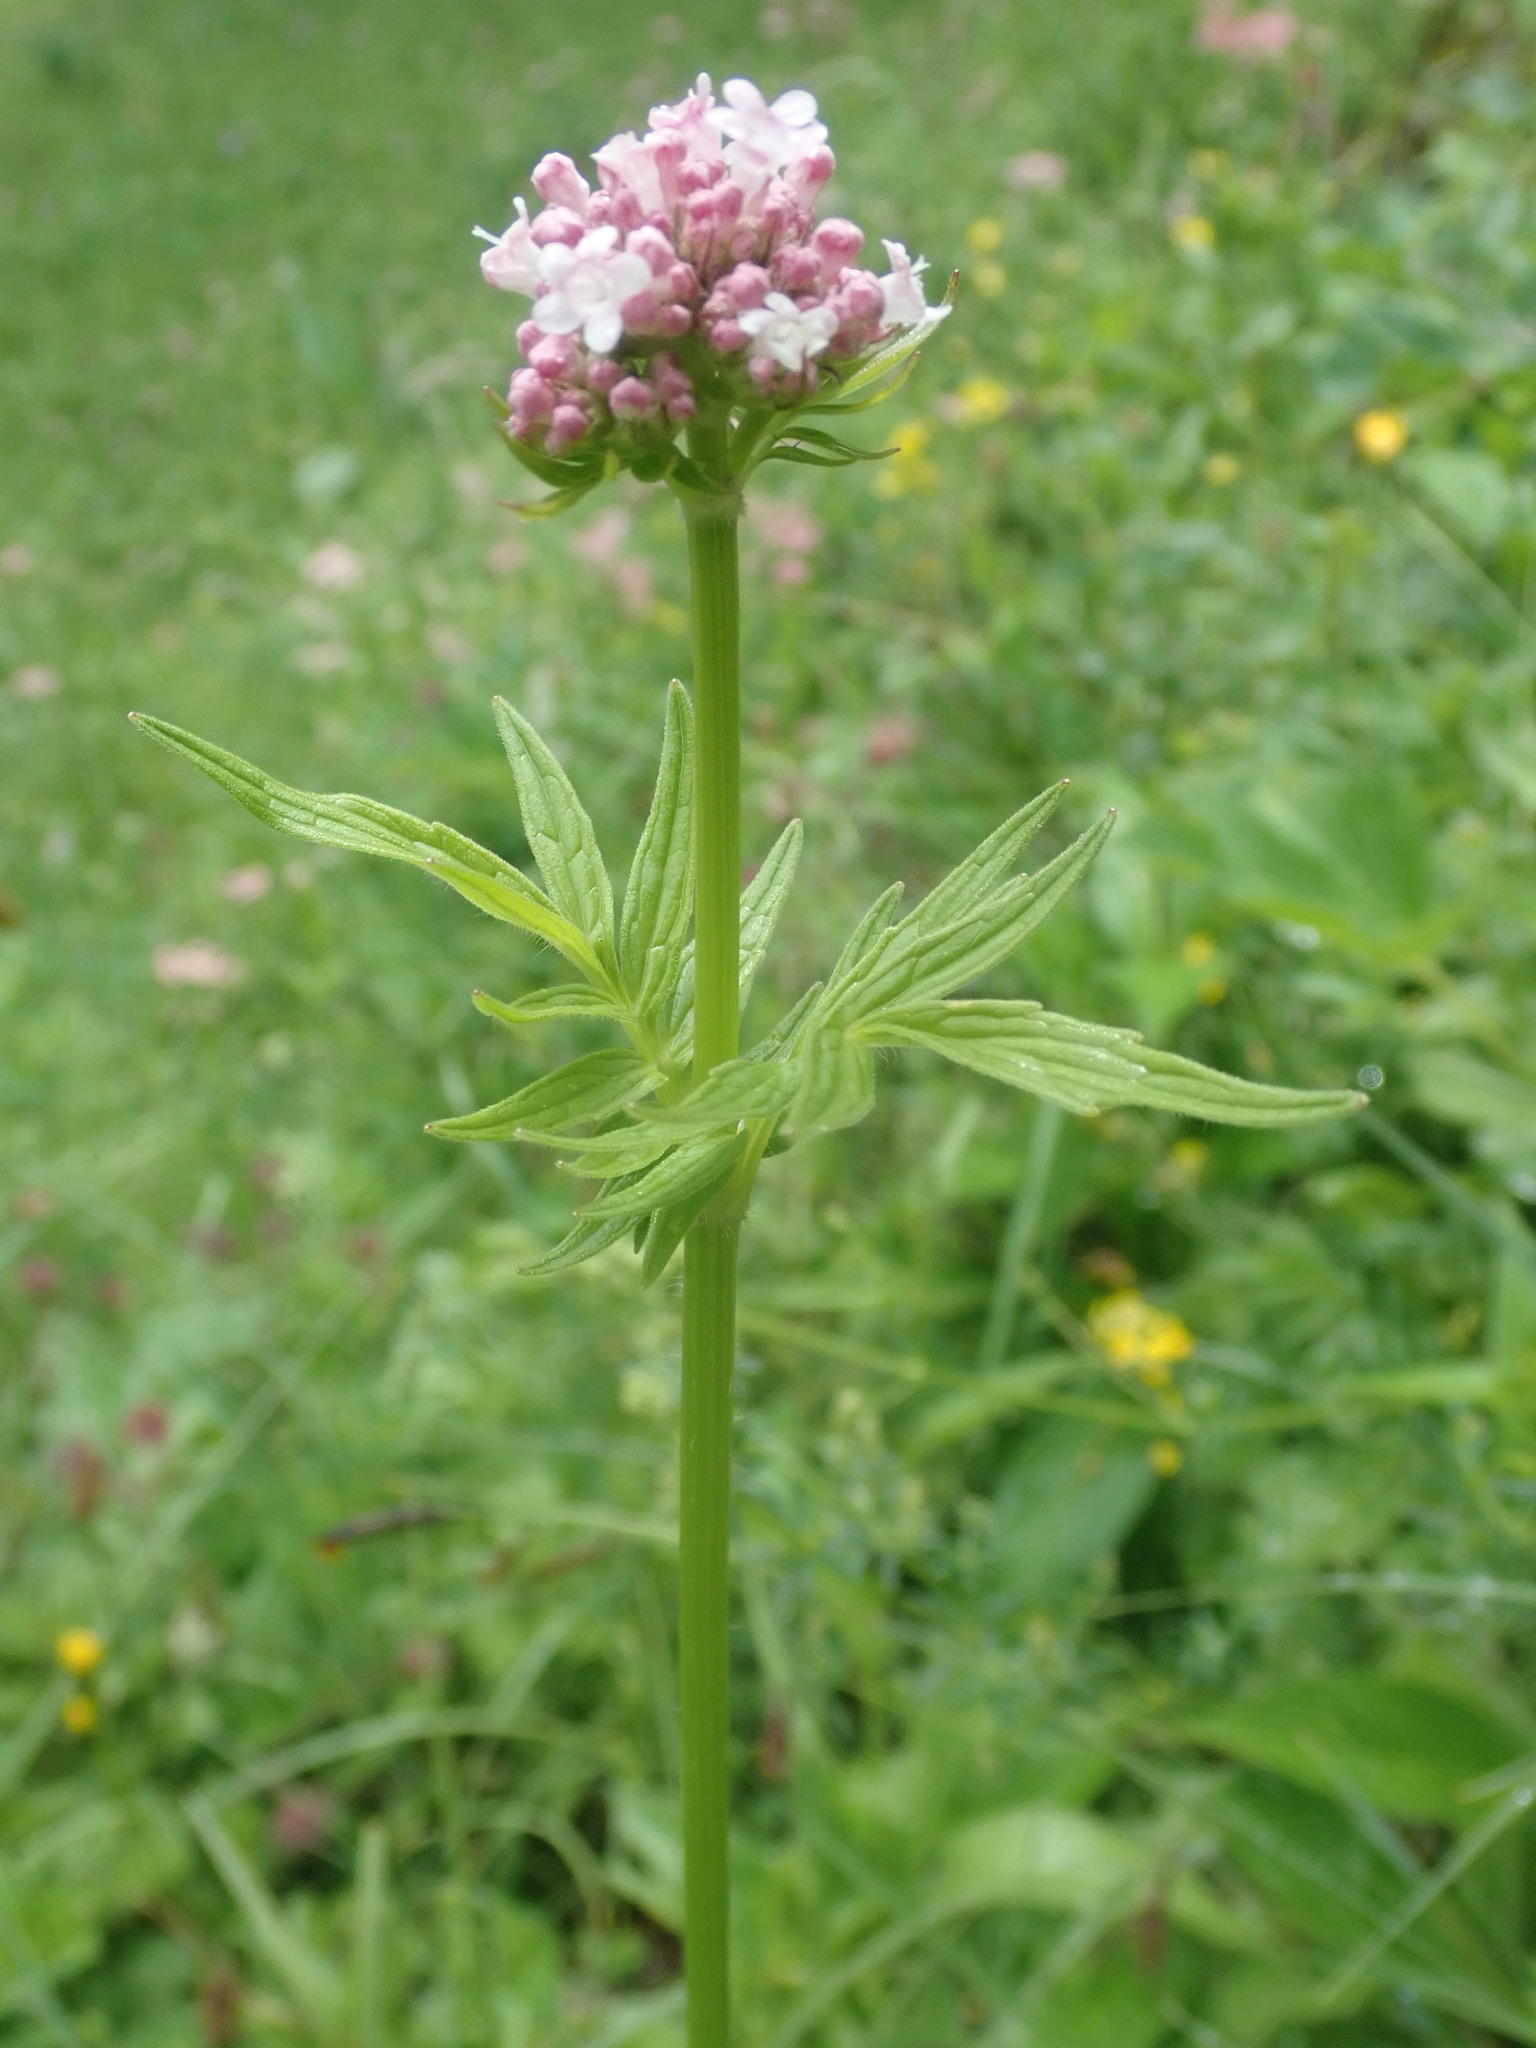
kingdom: Plantae
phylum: Tracheophyta
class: Magnoliopsida
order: Dipsacales
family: Caprifoliaceae
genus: Valeriana
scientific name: Valeriana officinalis
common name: Common valerian
